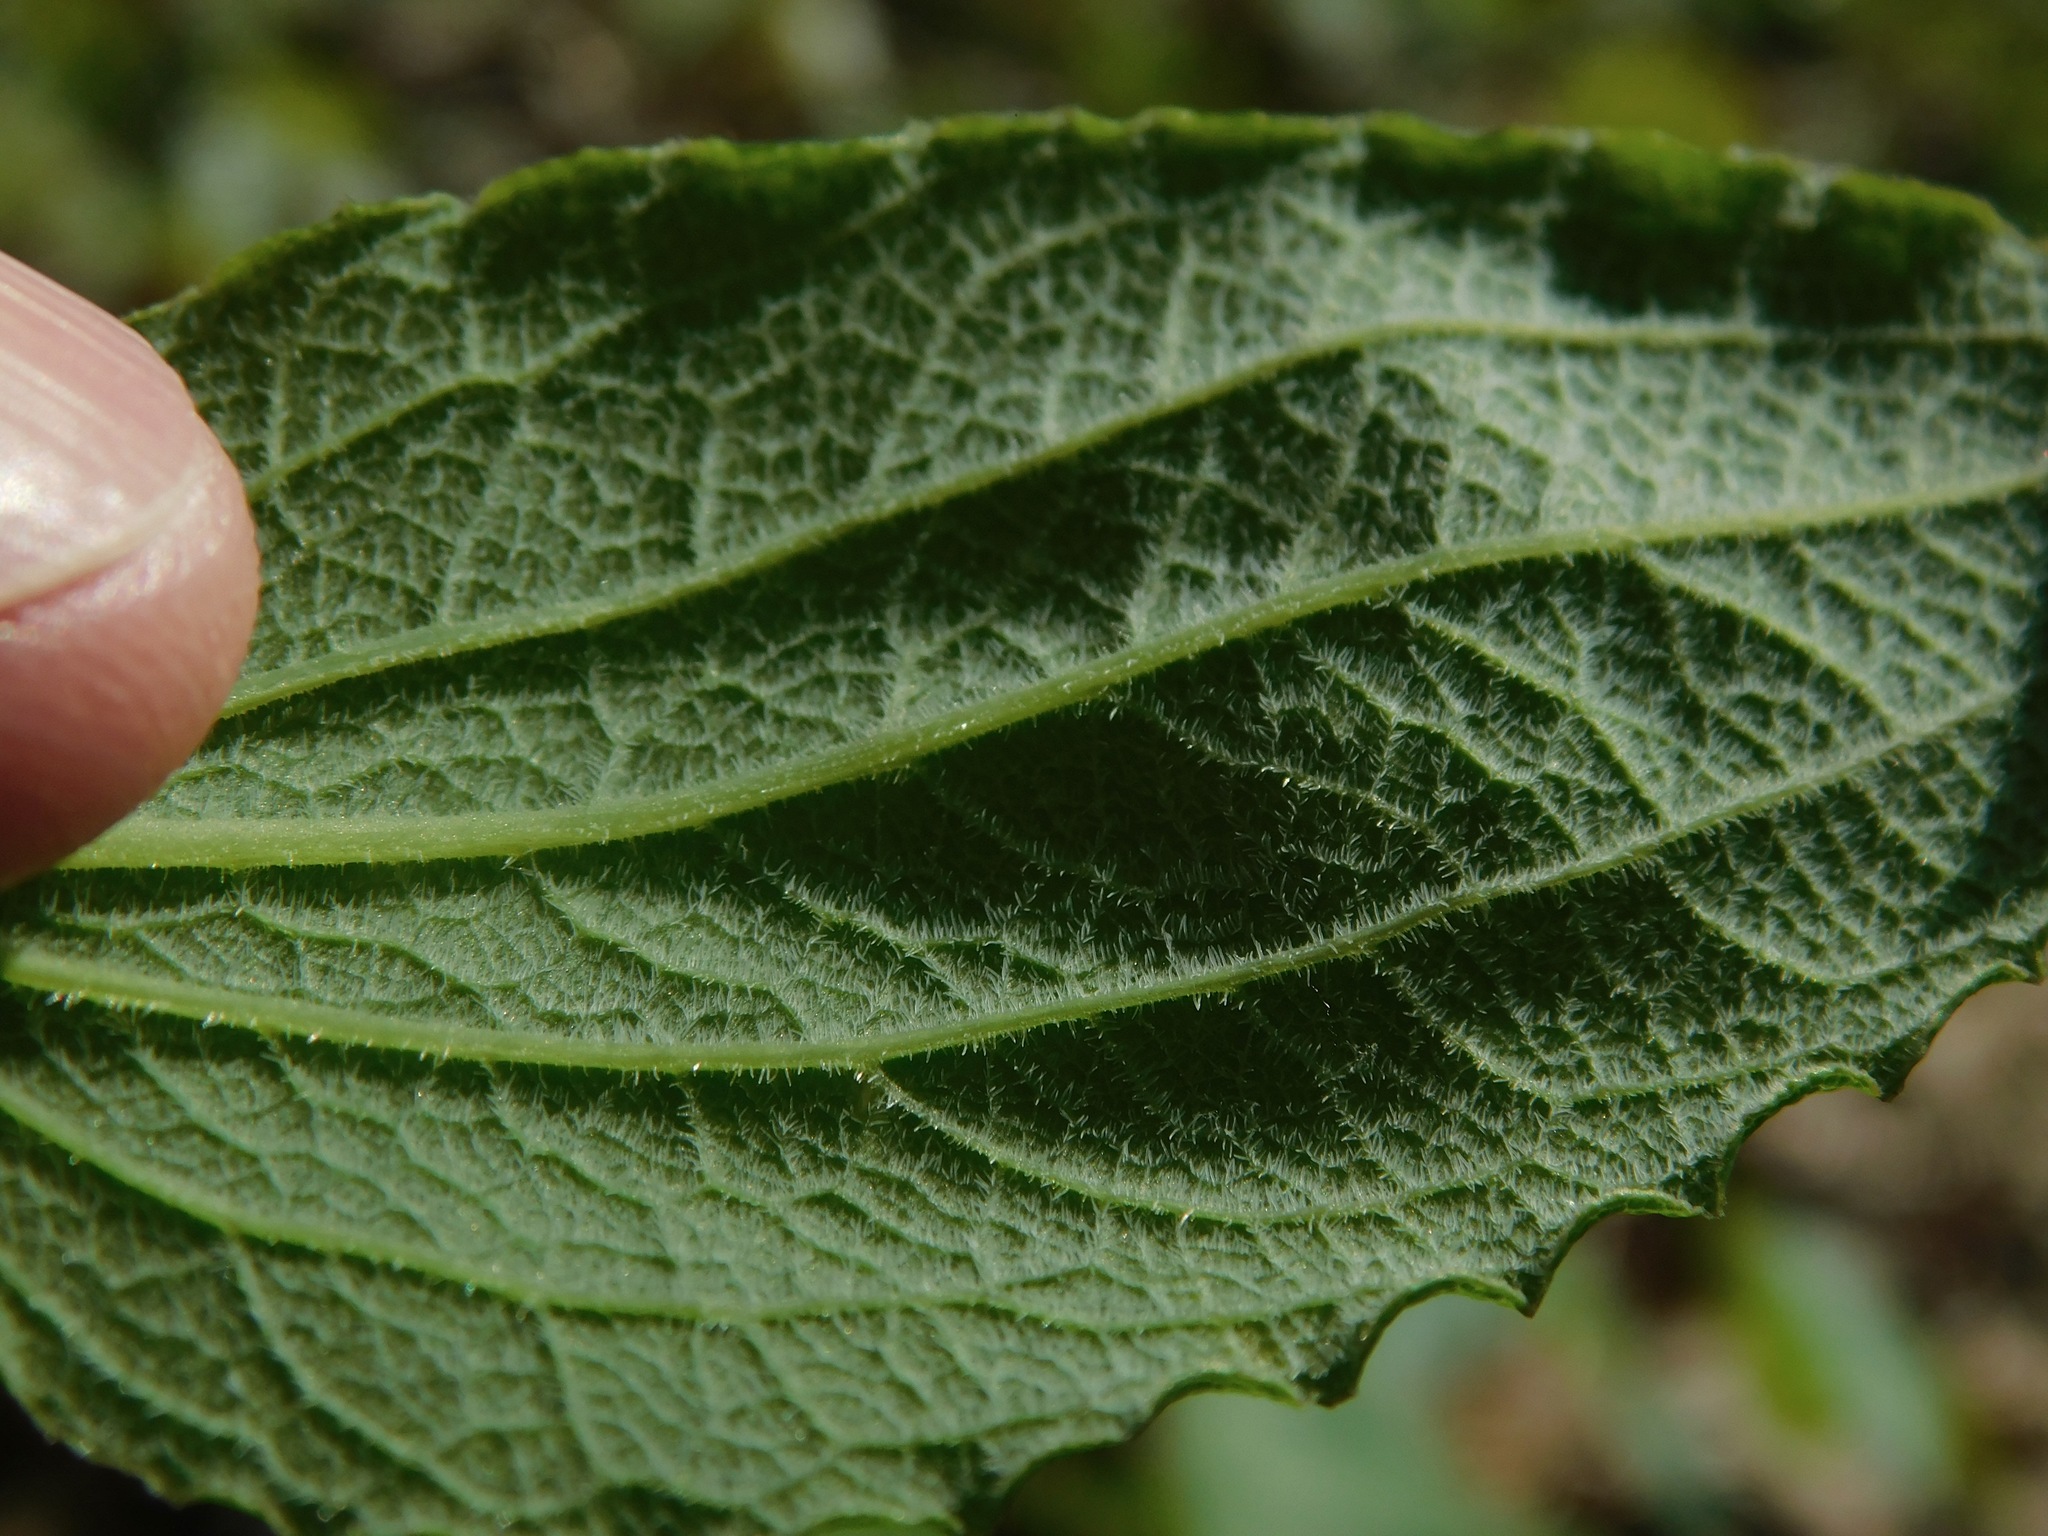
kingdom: Plantae
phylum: Tracheophyta
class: Liliopsida
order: Liliales
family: Smilacaceae
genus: Smilax
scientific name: Smilax hugeri
